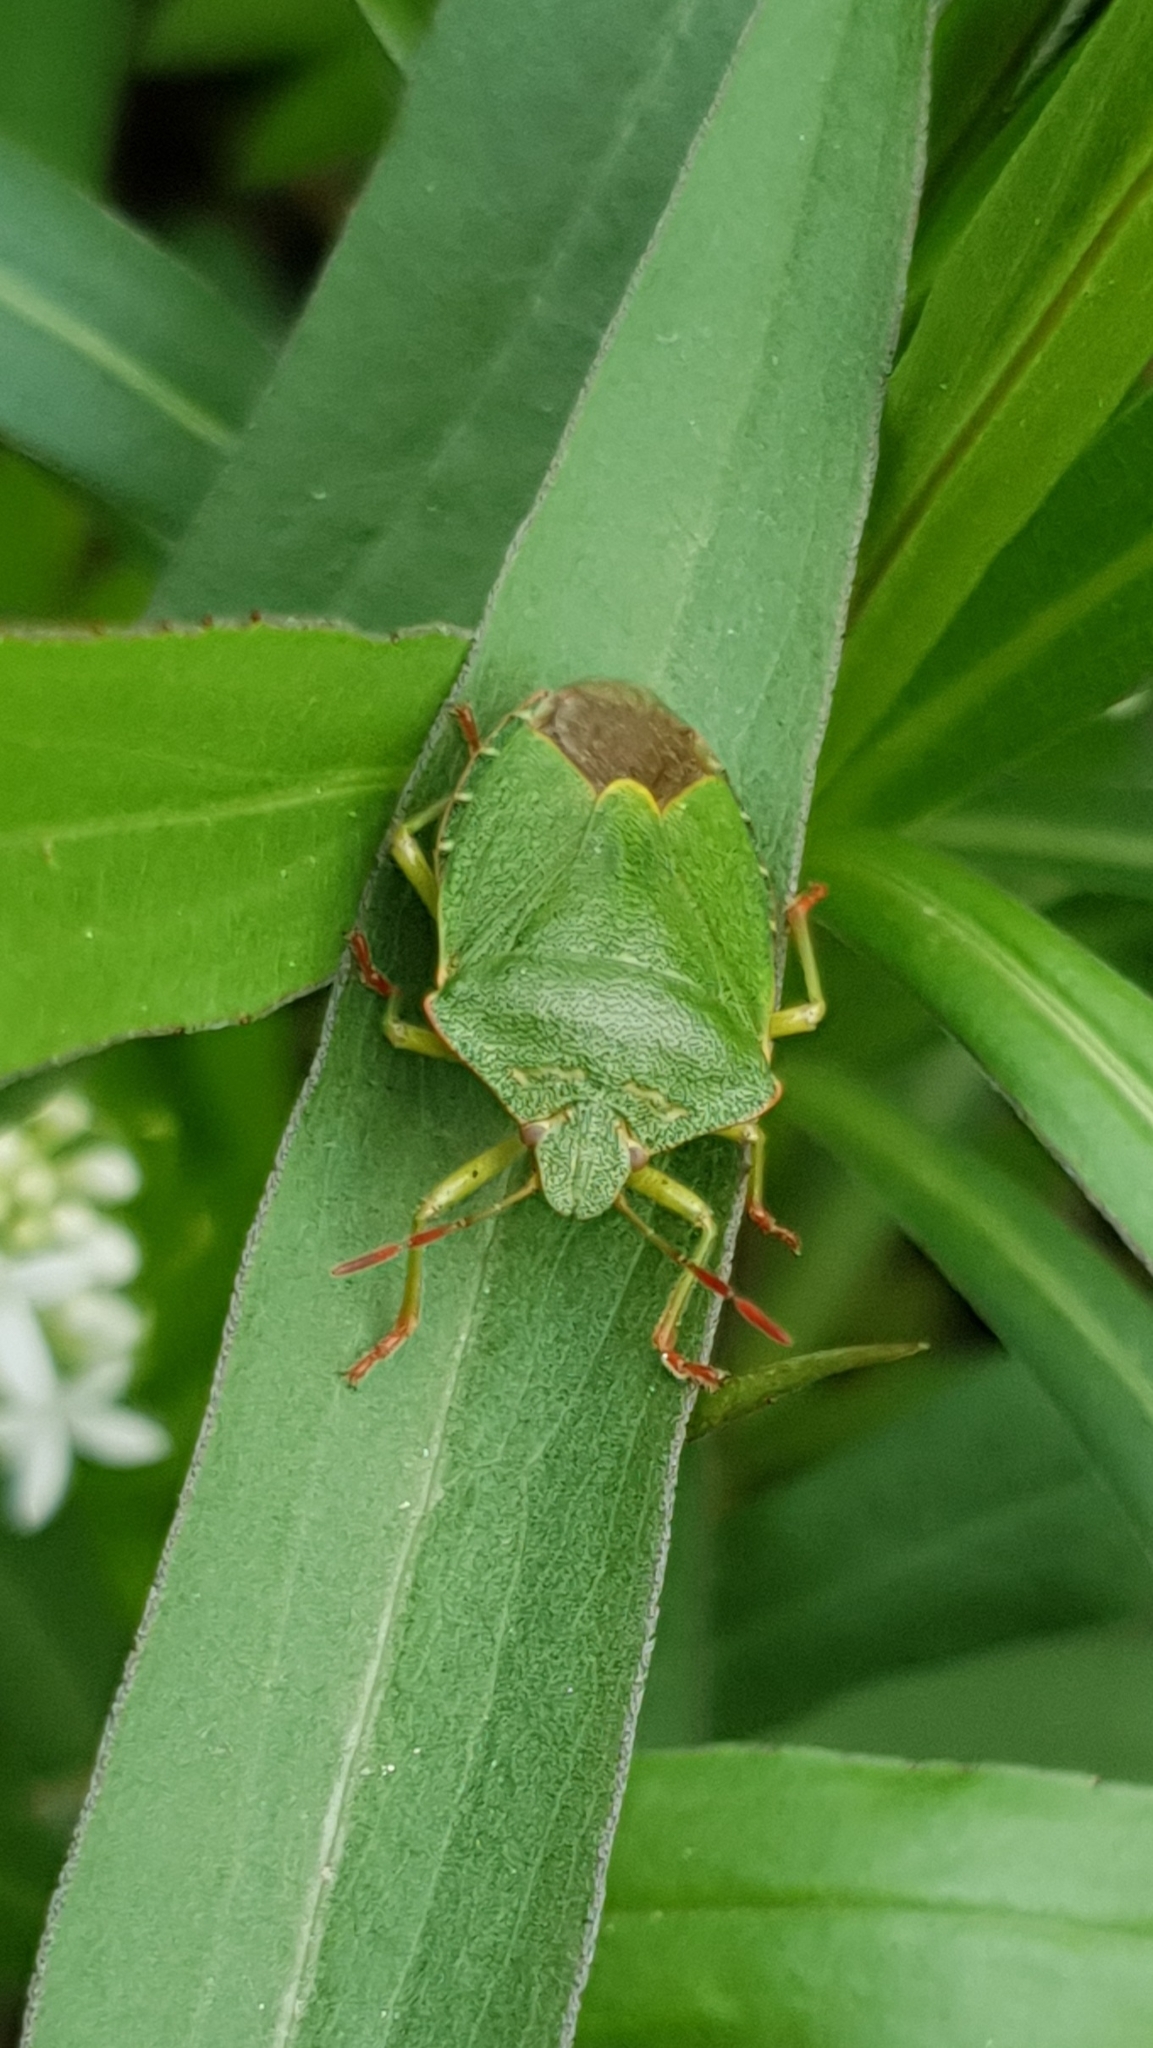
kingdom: Animalia
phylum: Arthropoda
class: Insecta
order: Hemiptera
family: Pentatomidae
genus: Palomena
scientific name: Palomena prasina
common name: Green shieldbug
